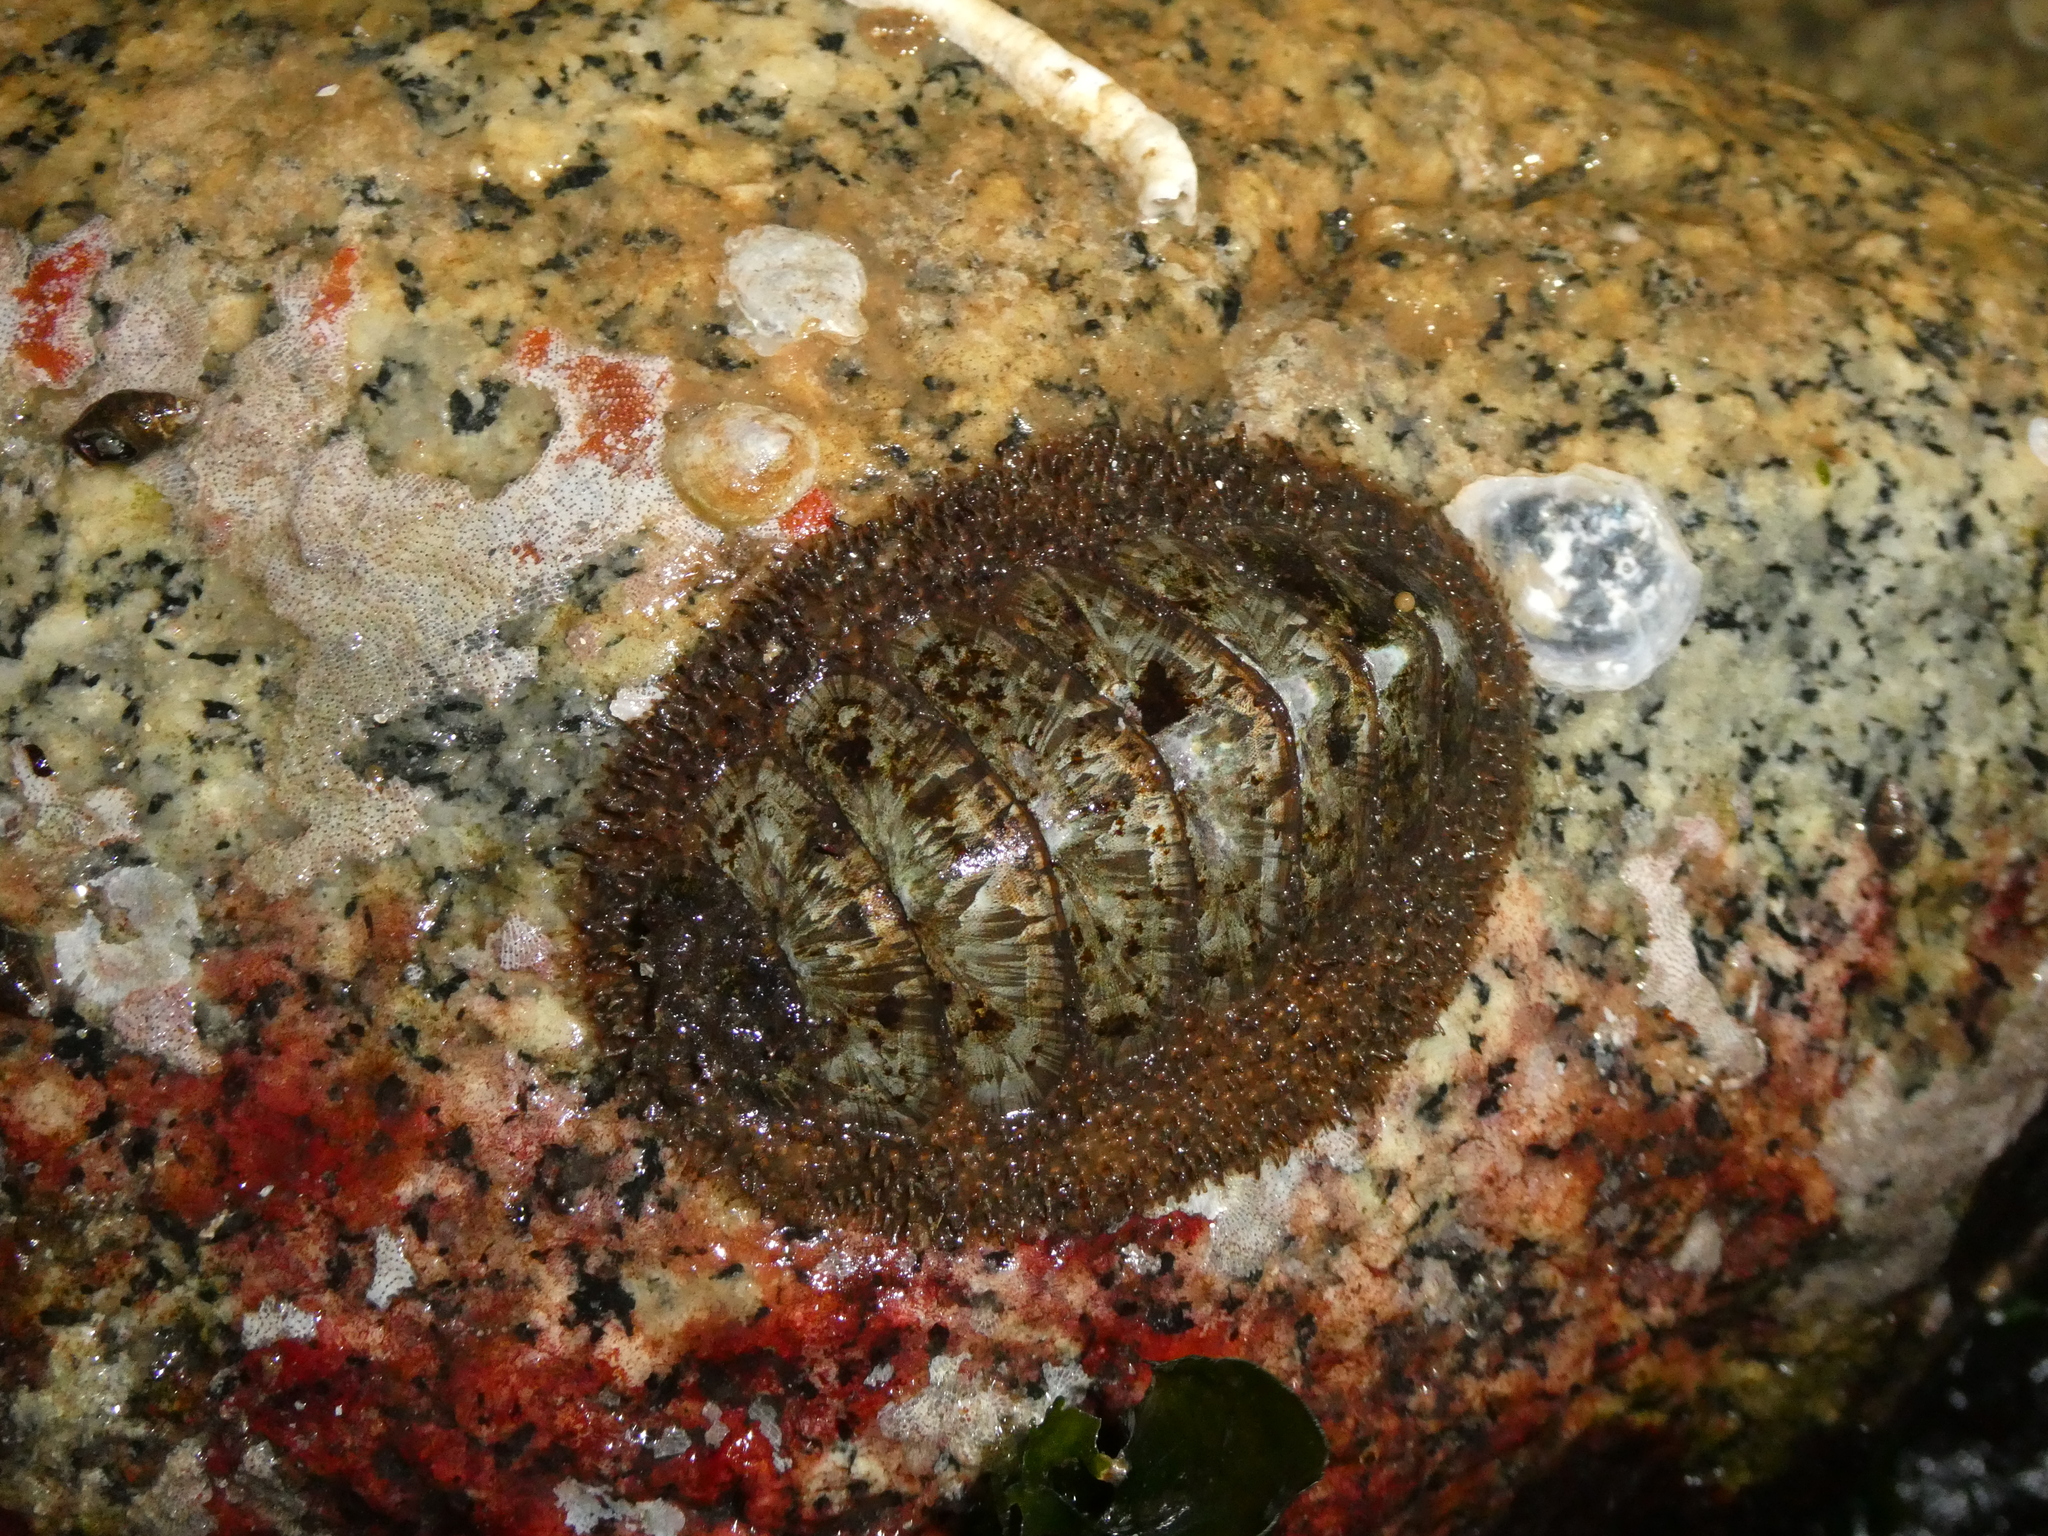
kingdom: Animalia
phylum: Mollusca
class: Polyplacophora
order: Chitonida
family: Mopaliidae
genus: Mopalia
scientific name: Mopalia lignosa
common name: Woody chiton
